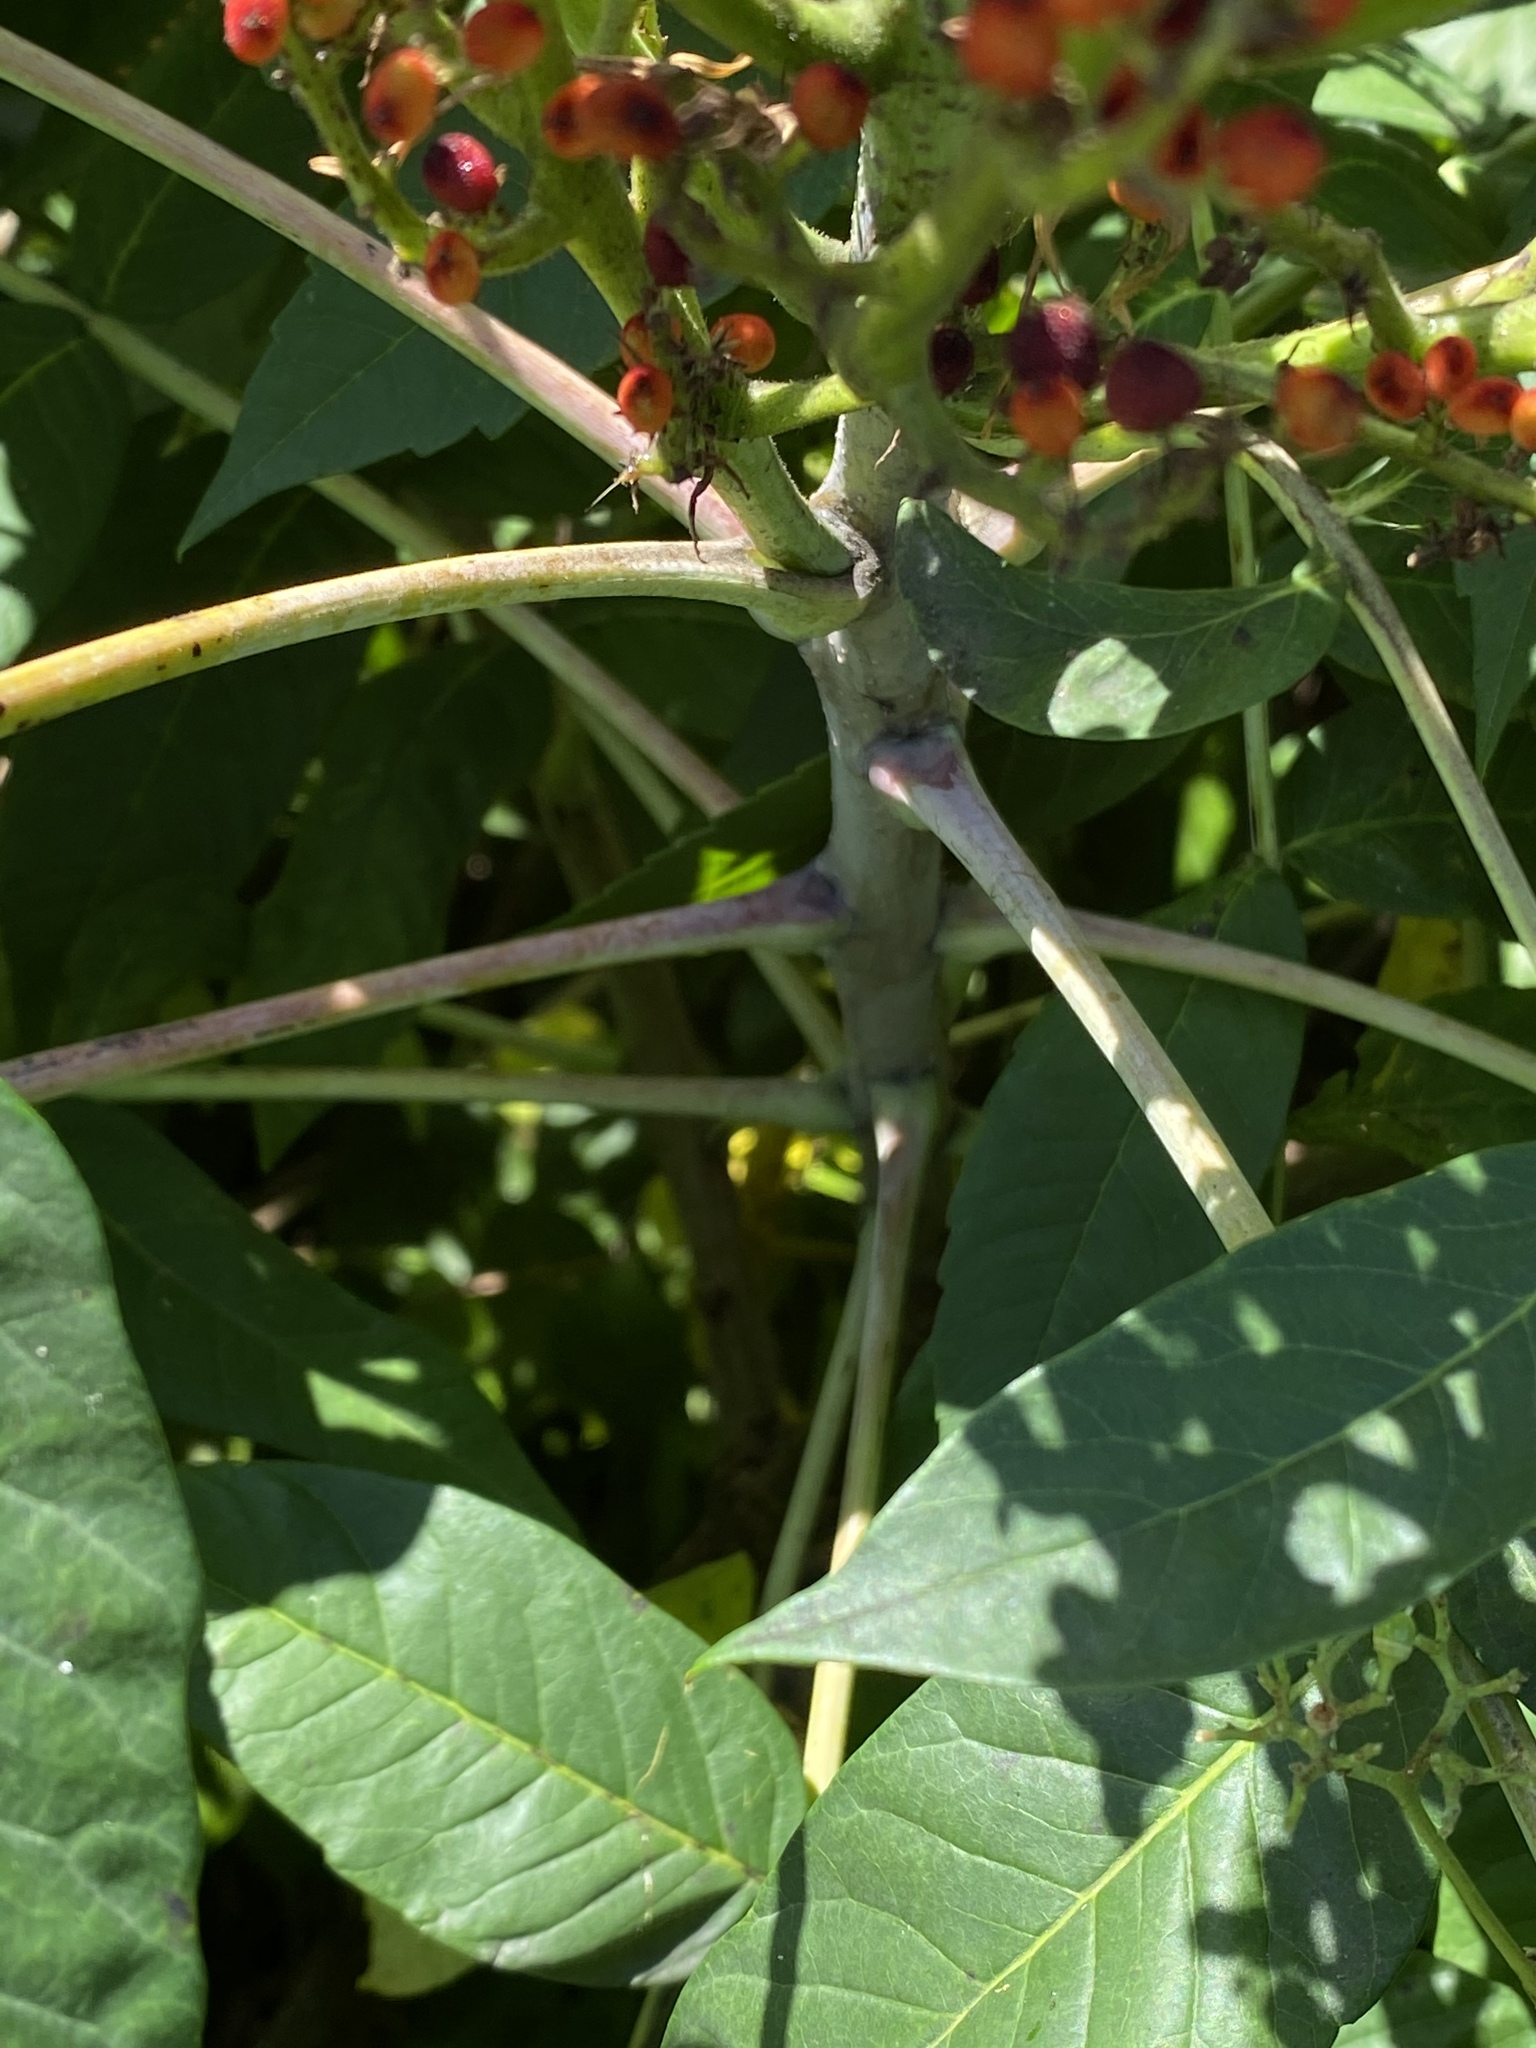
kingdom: Plantae
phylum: Tracheophyta
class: Magnoliopsida
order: Sapindales
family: Anacardiaceae
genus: Rhus
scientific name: Rhus glabra
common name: Scarlet sumac
